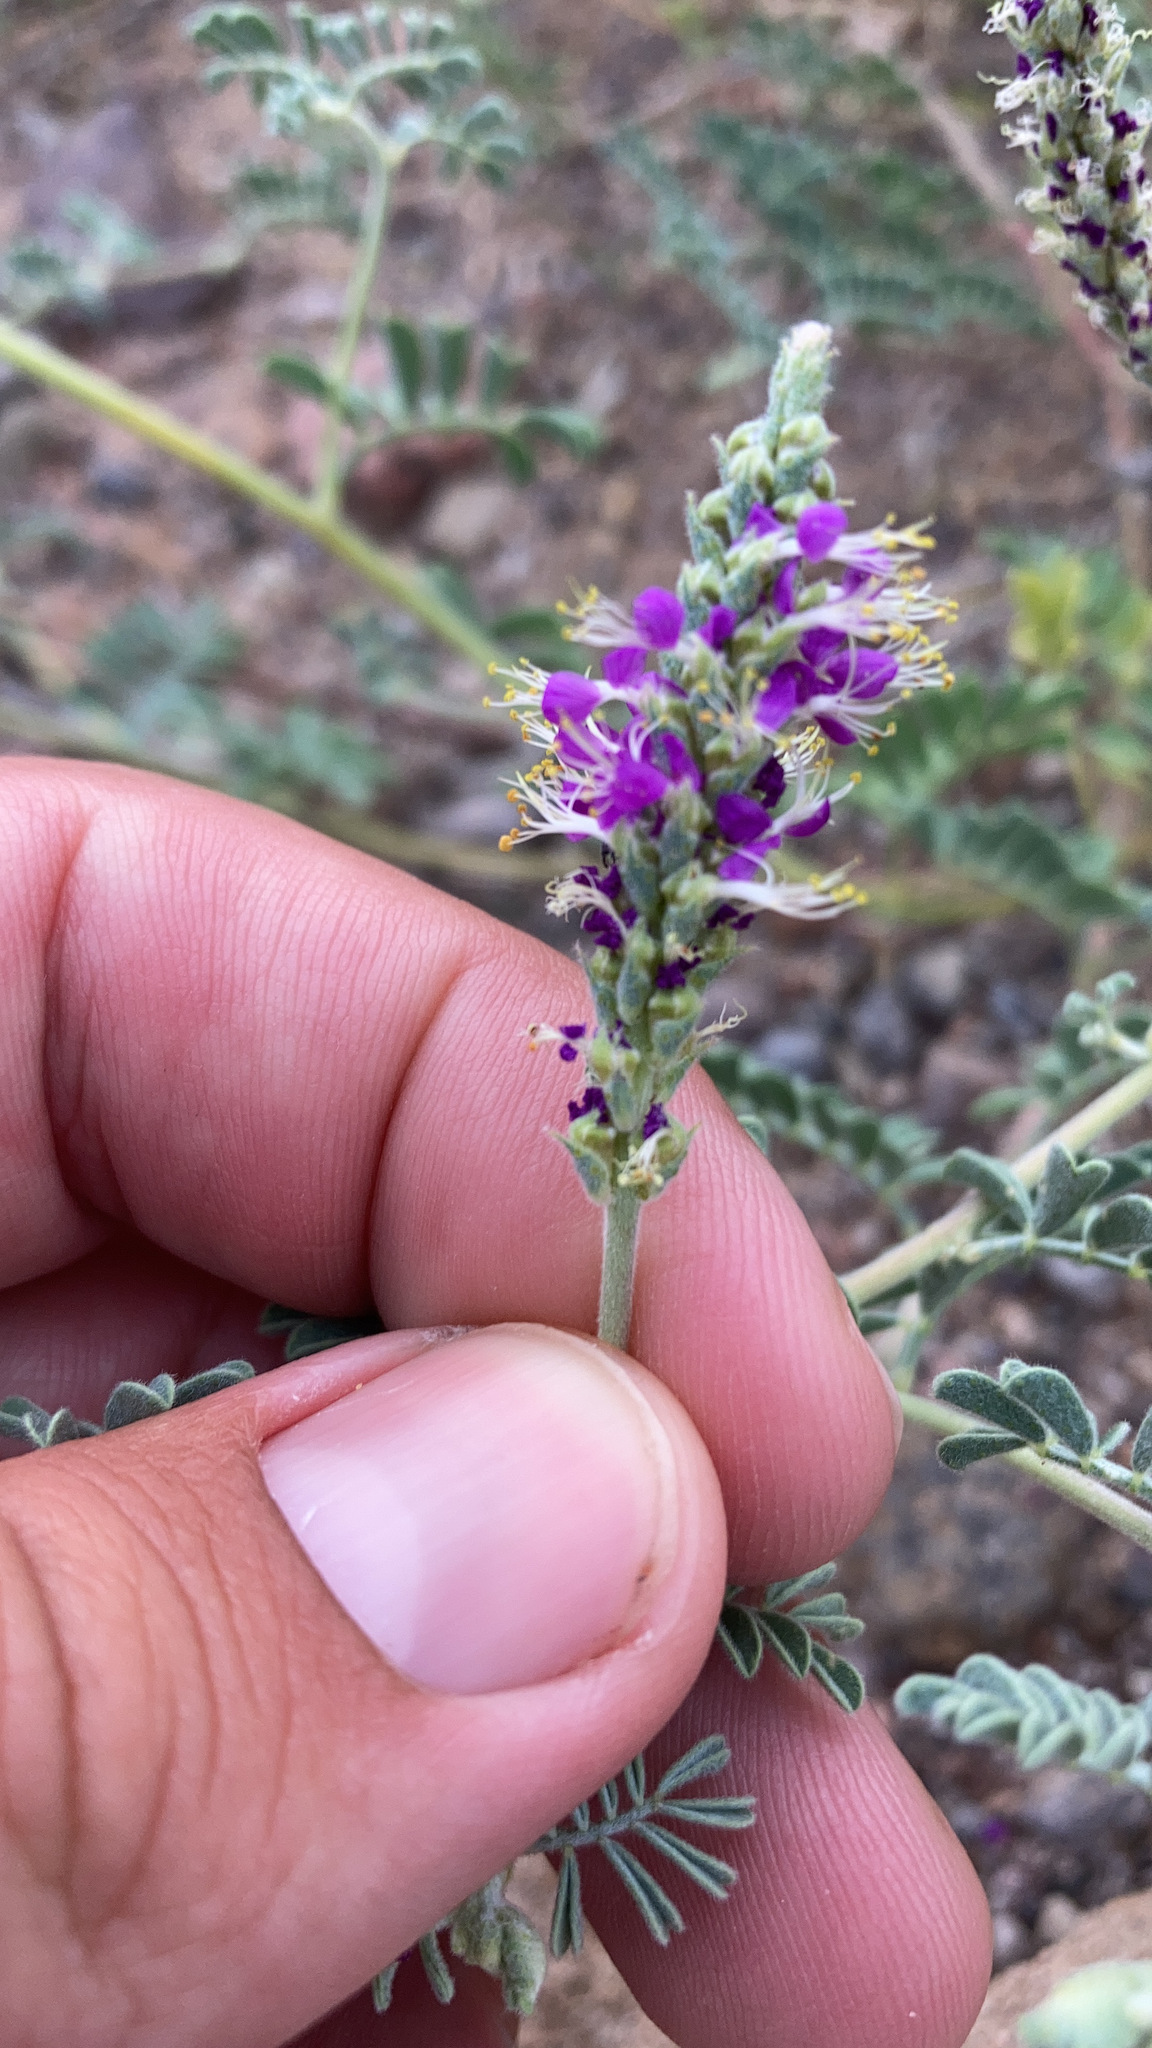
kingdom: Plantae
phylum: Tracheophyta
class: Magnoliopsida
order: Fabales
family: Fabaceae
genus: Dalea
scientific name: Dalea lanata
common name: Woolly dalea
